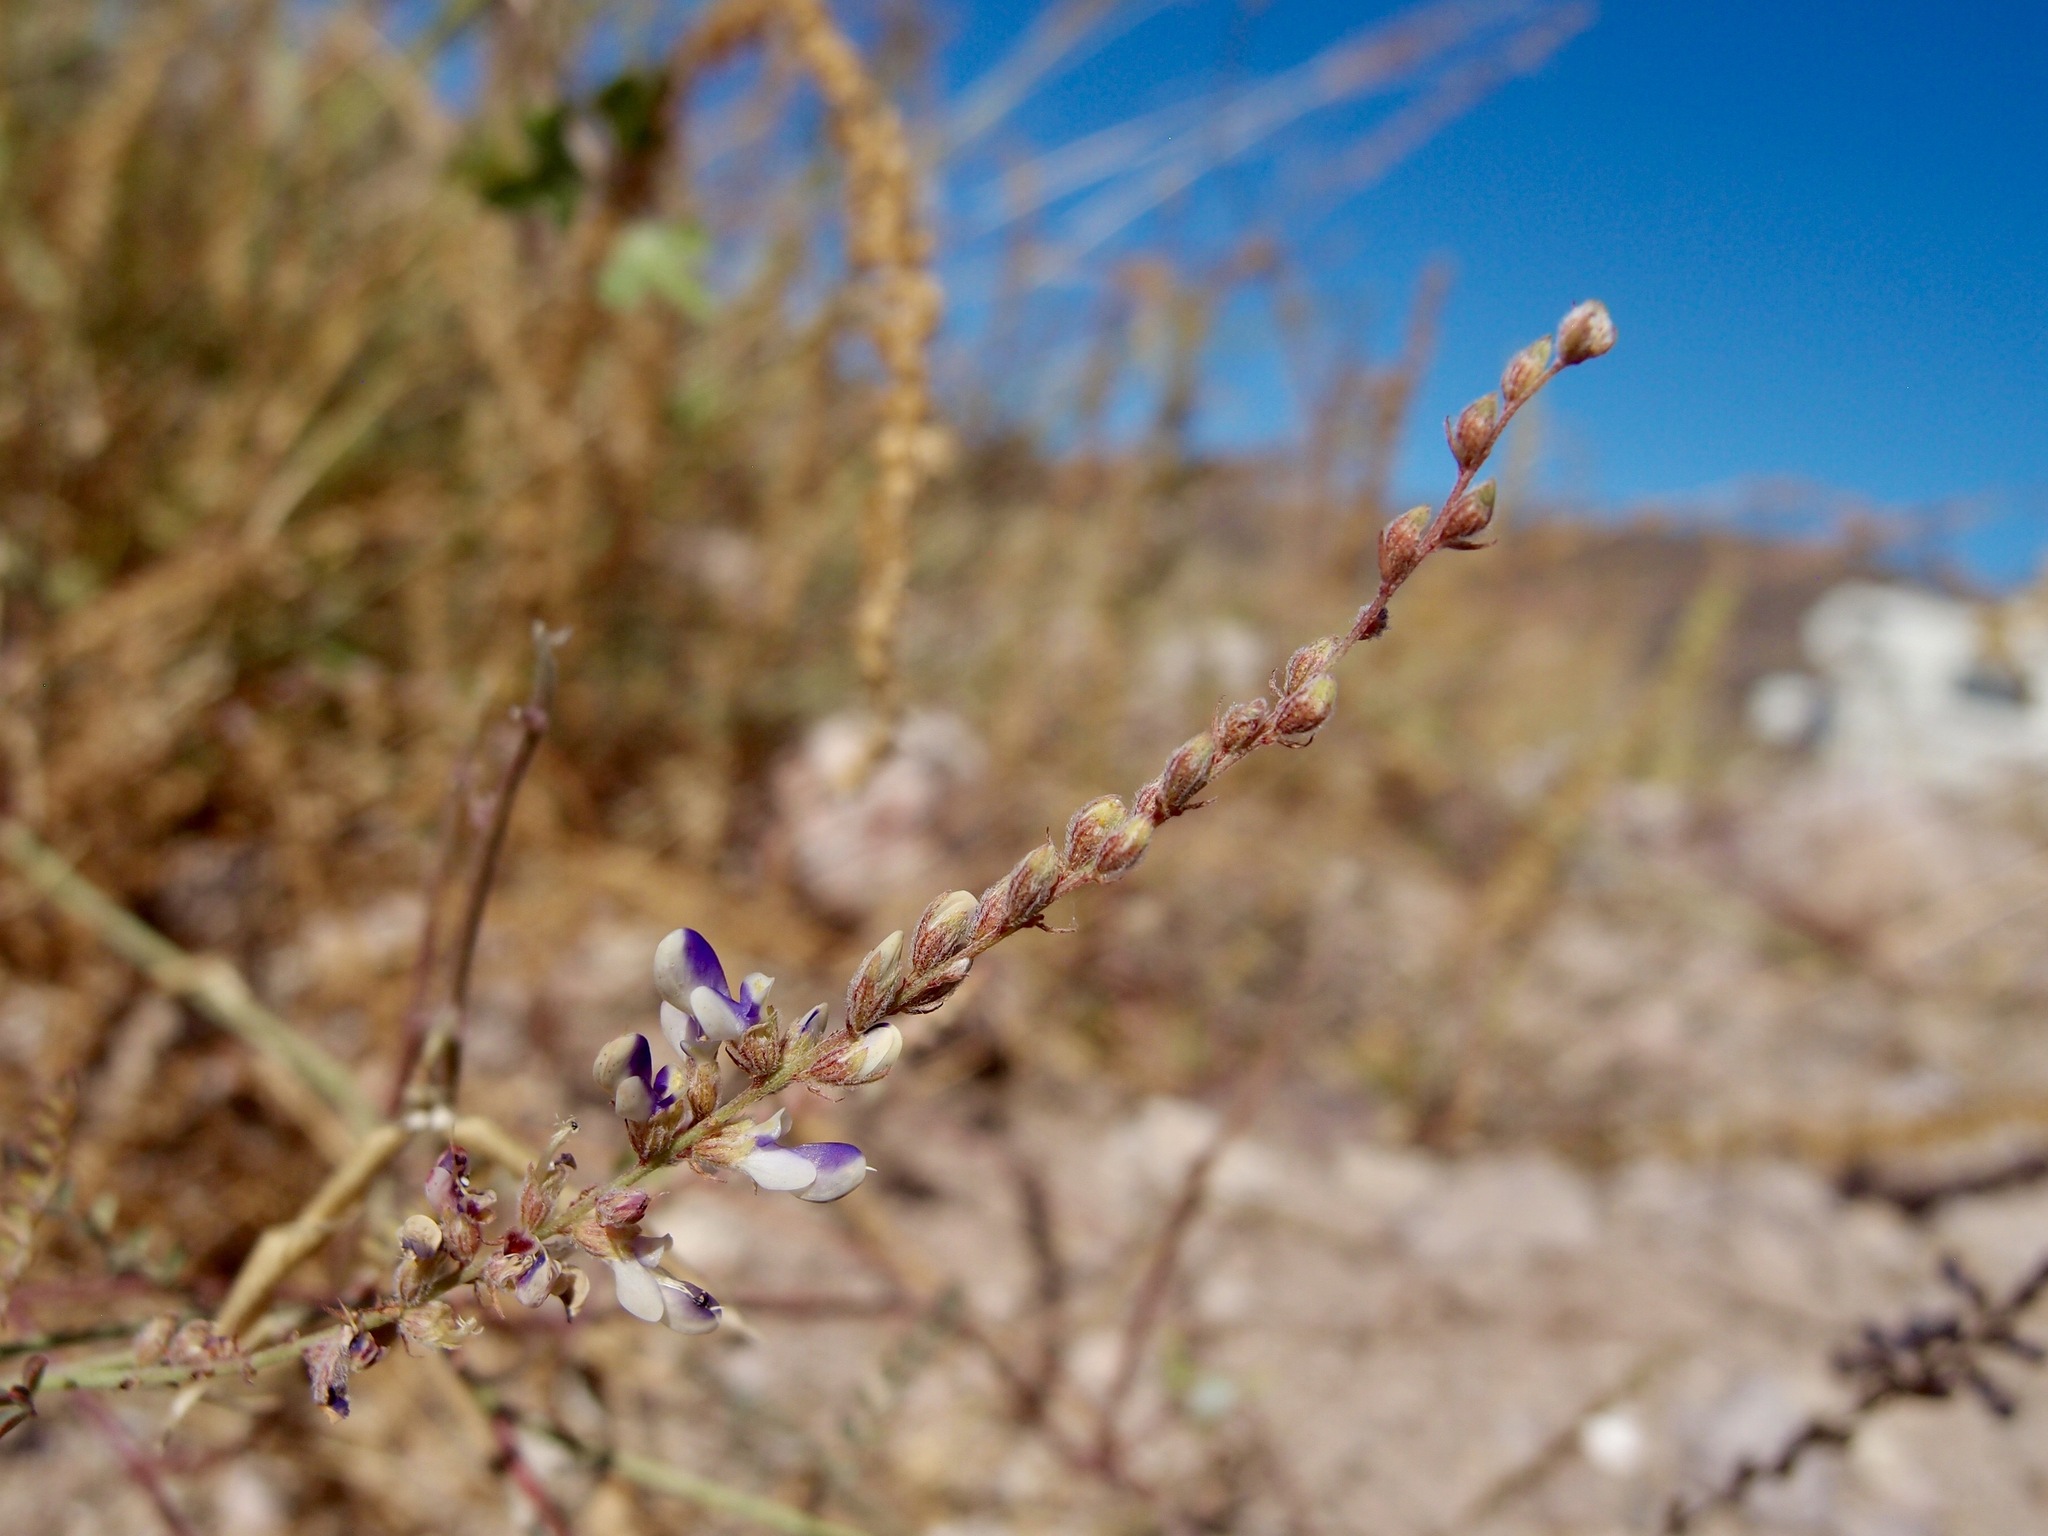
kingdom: Plantae
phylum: Tracheophyta
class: Magnoliopsida
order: Fabales
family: Fabaceae
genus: Marina
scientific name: Marina parryi
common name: Parry's marina
